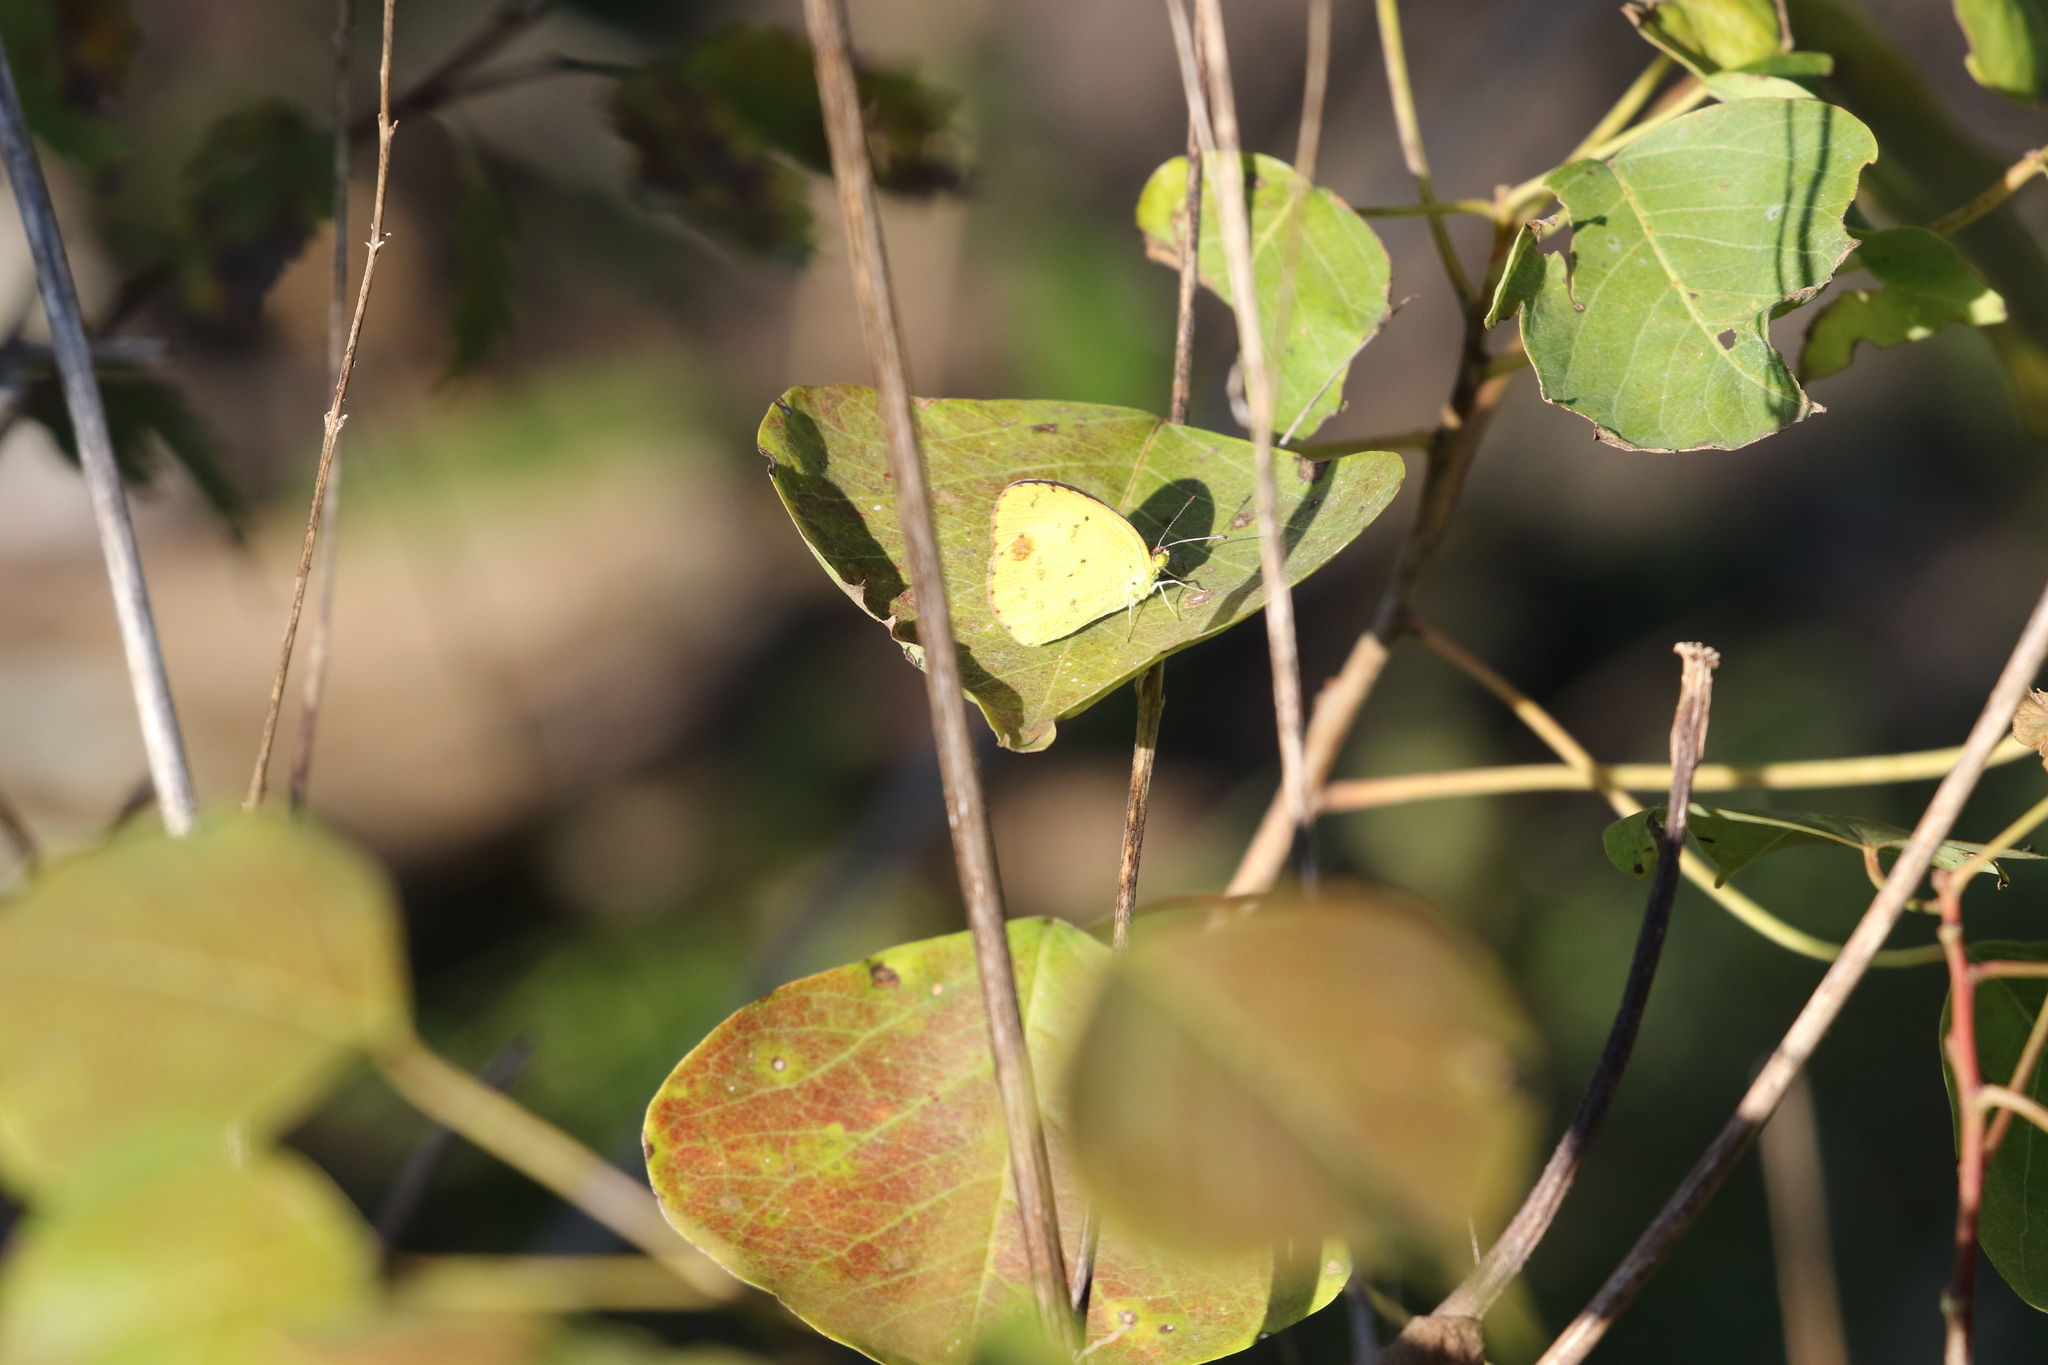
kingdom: Animalia
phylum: Arthropoda
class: Insecta
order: Lepidoptera
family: Pieridae
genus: Pyrisitia
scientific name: Pyrisitia lisa
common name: Little yellow
